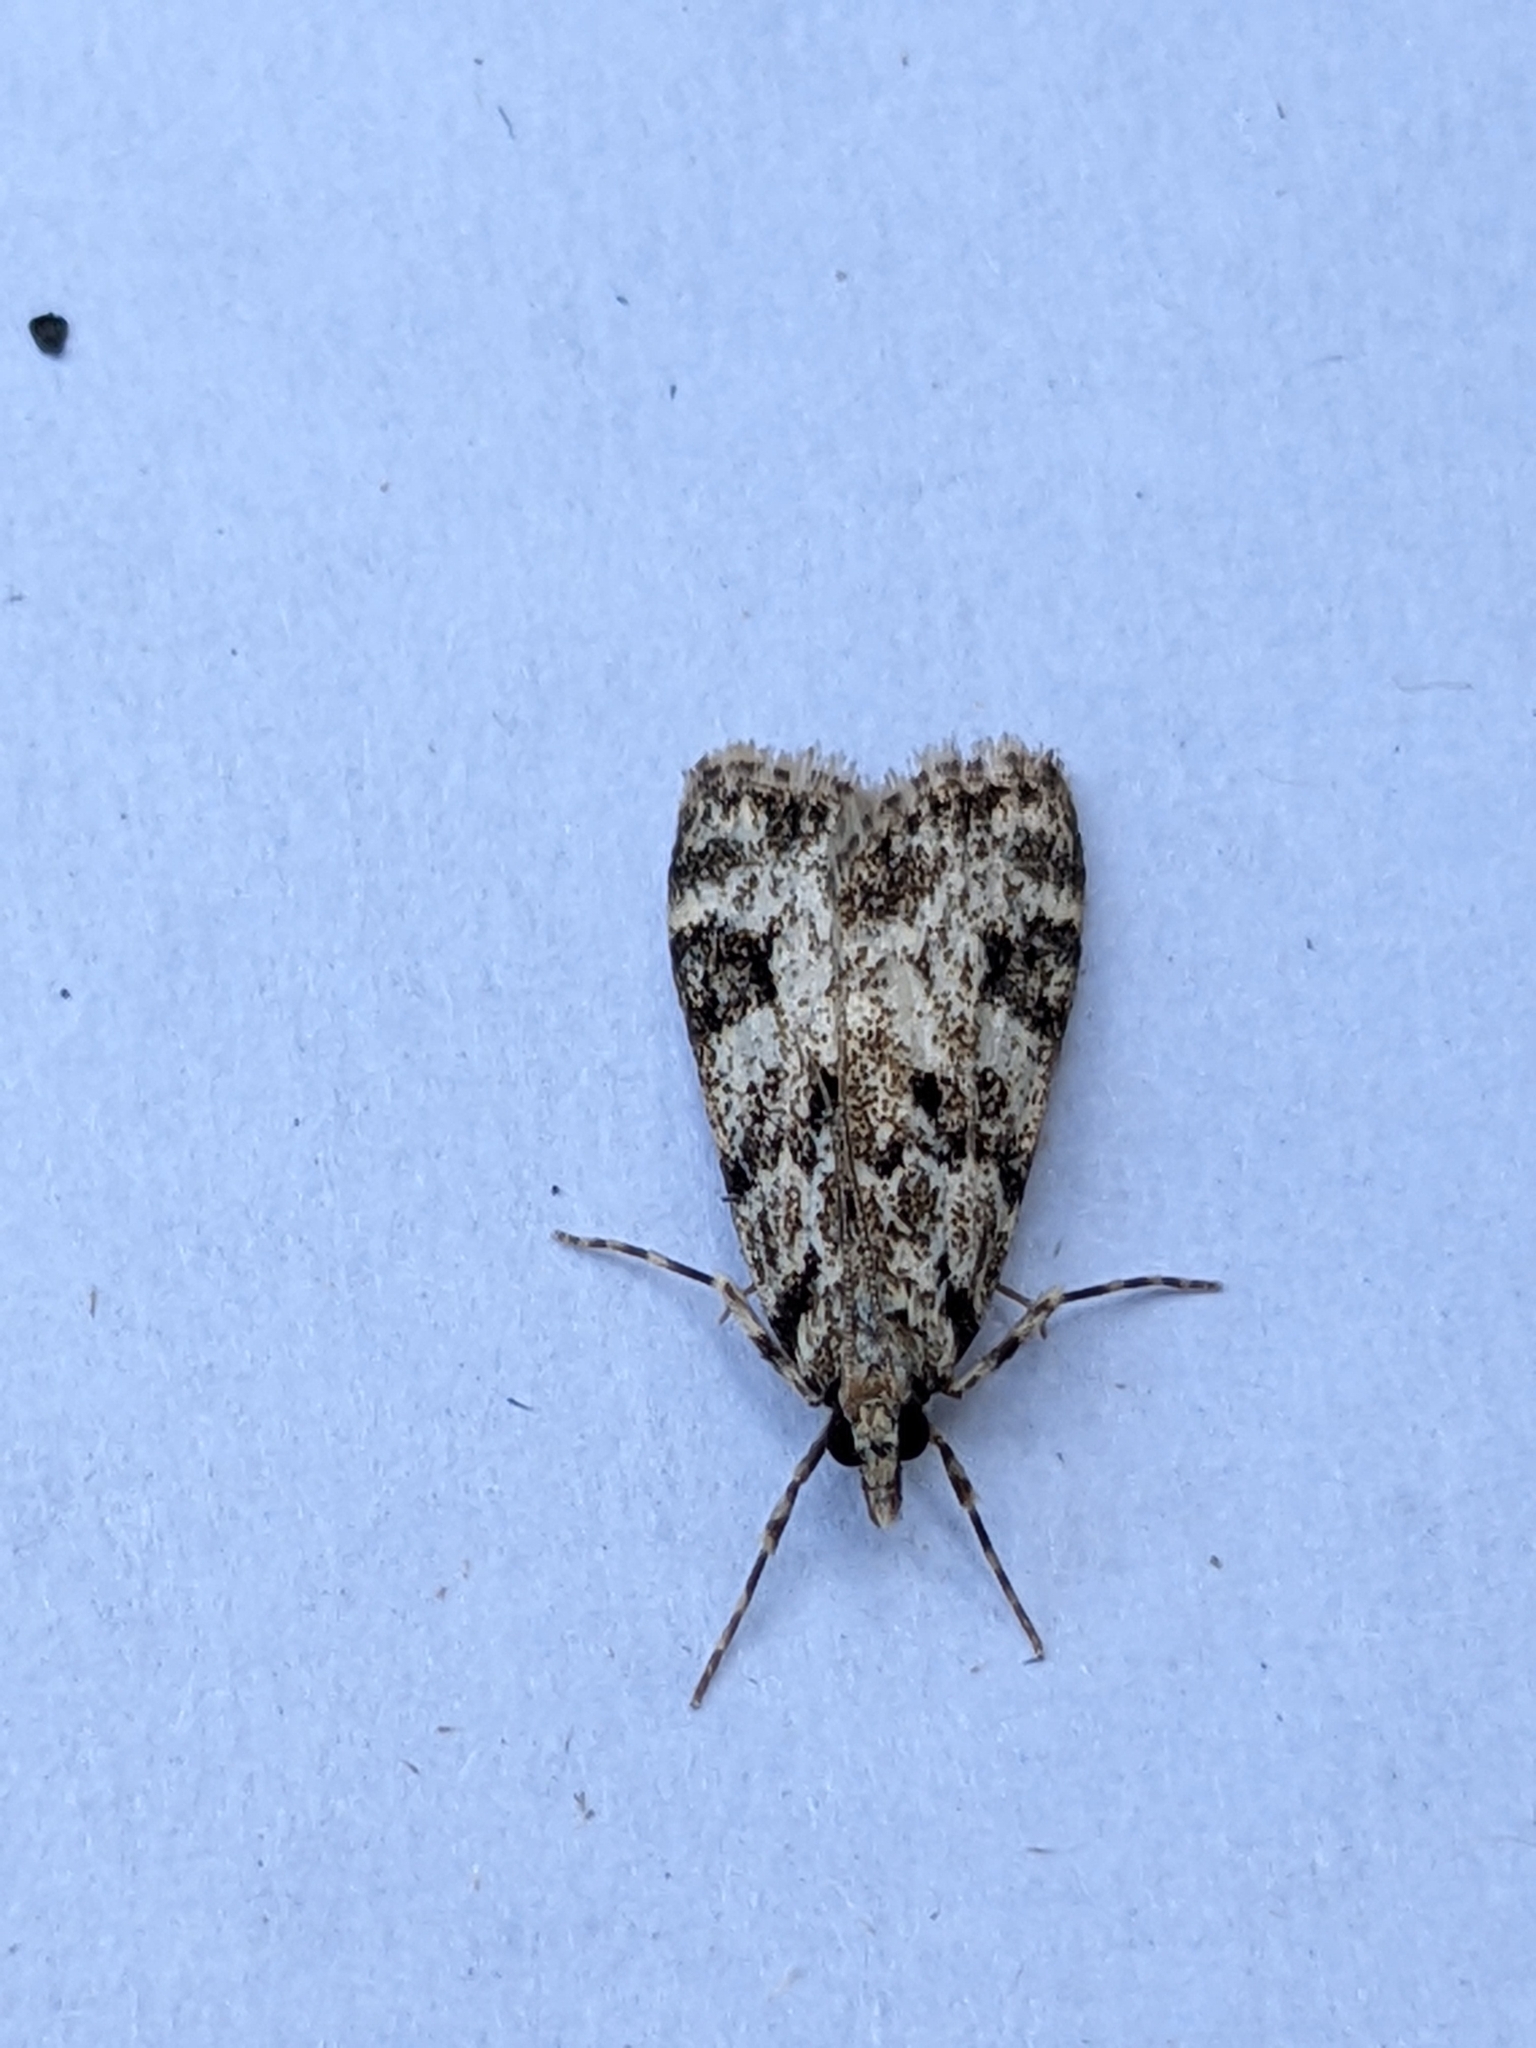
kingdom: Animalia
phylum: Arthropoda
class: Insecta
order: Lepidoptera
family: Crambidae
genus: Eudonia
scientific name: Eudonia delunella
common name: Pied grey
